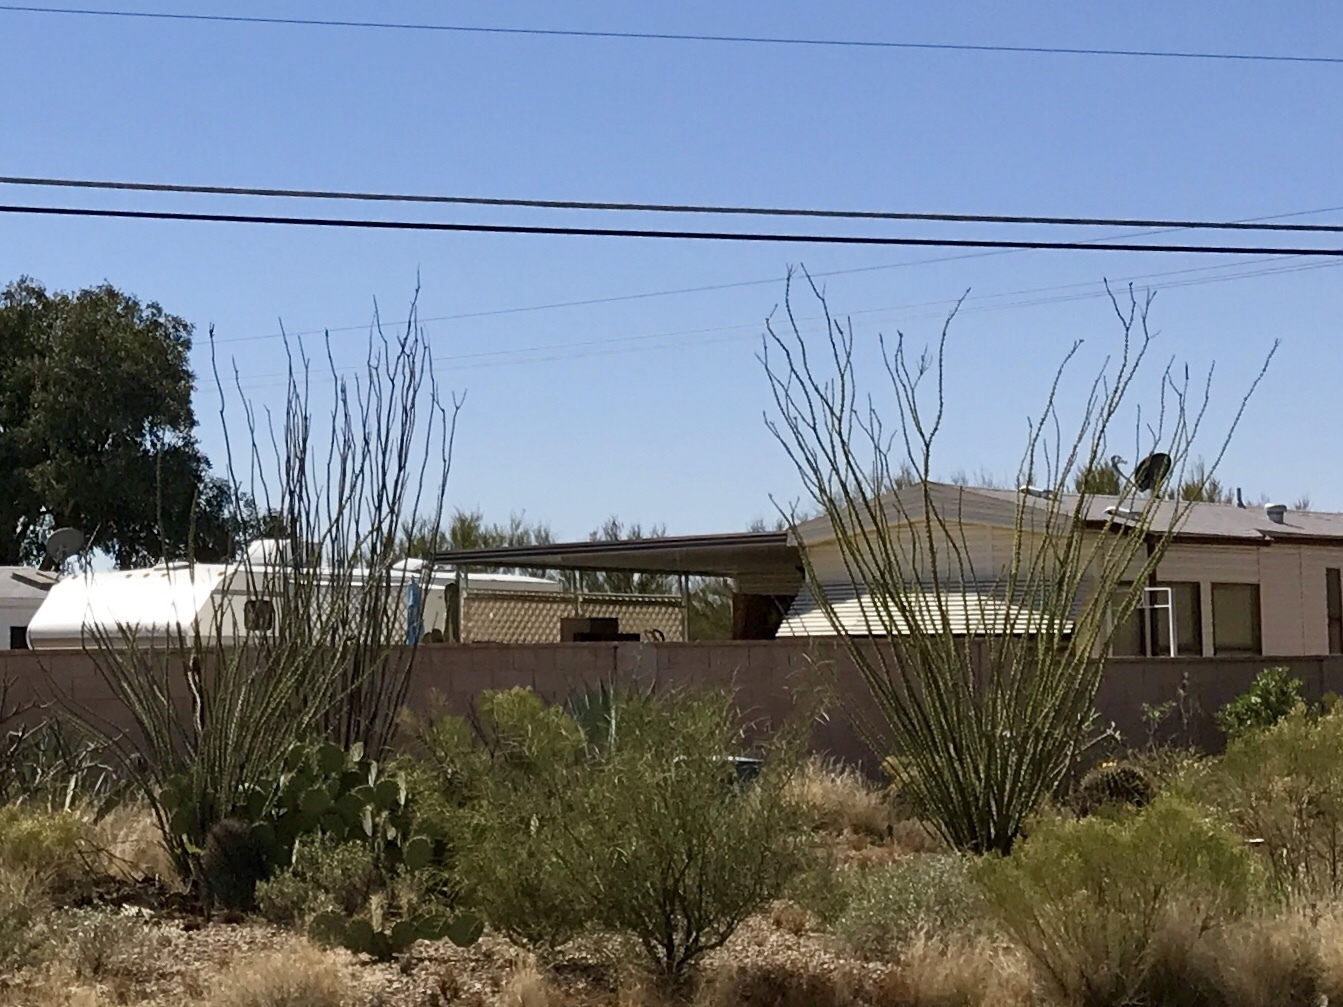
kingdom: Plantae
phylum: Tracheophyta
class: Magnoliopsida
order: Ericales
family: Fouquieriaceae
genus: Fouquieria
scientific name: Fouquieria splendens
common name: Vine-cactus
